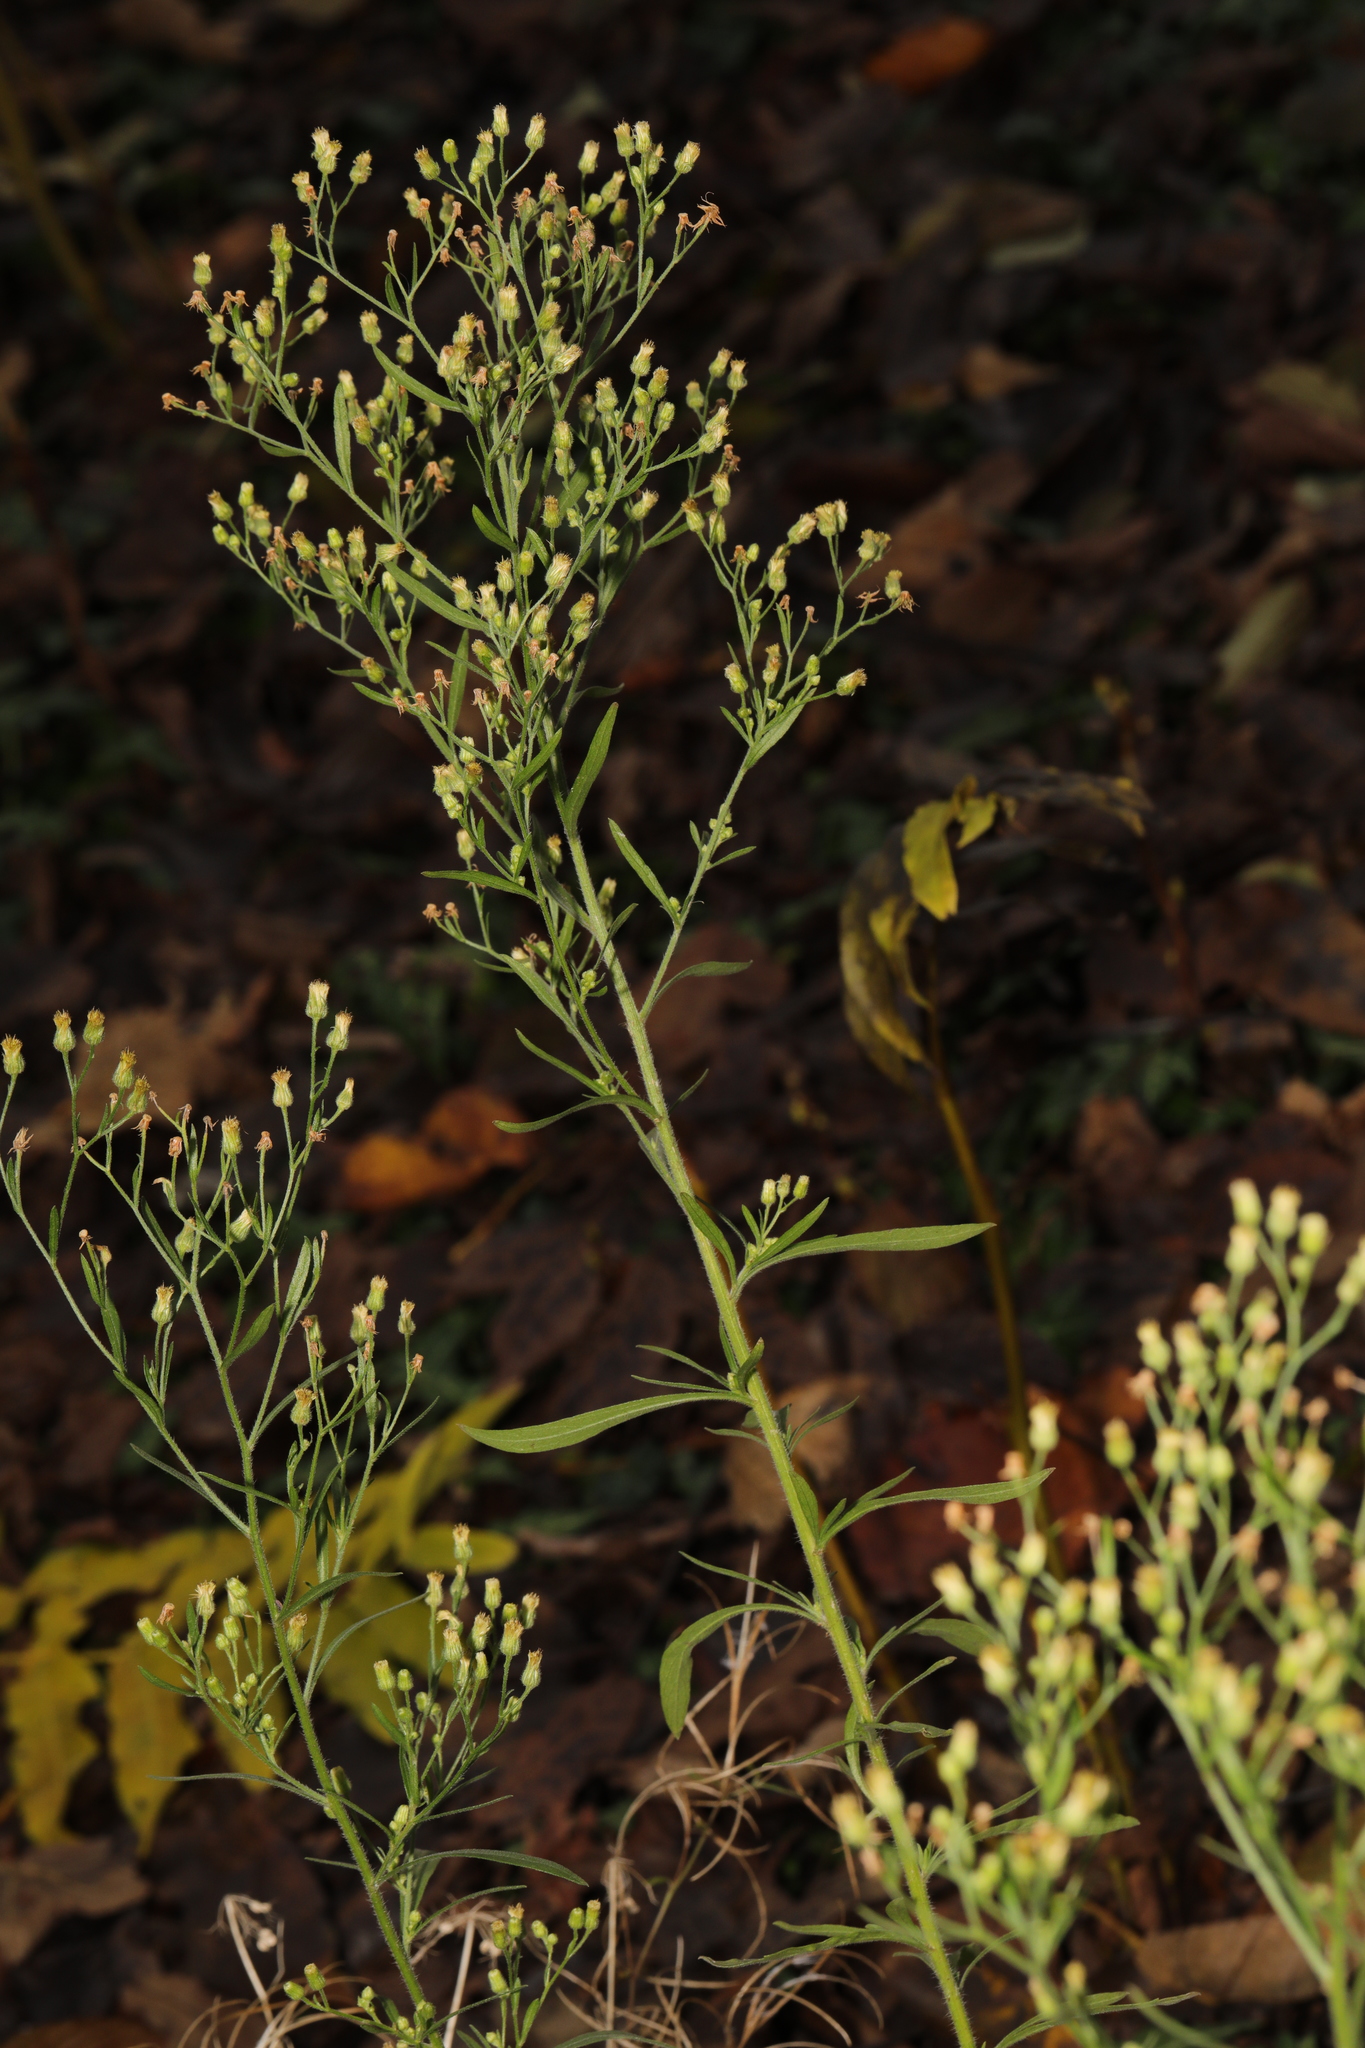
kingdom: Plantae
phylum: Tracheophyta
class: Magnoliopsida
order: Asterales
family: Asteraceae
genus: Erigeron
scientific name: Erigeron canadensis
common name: Canadian fleabane
